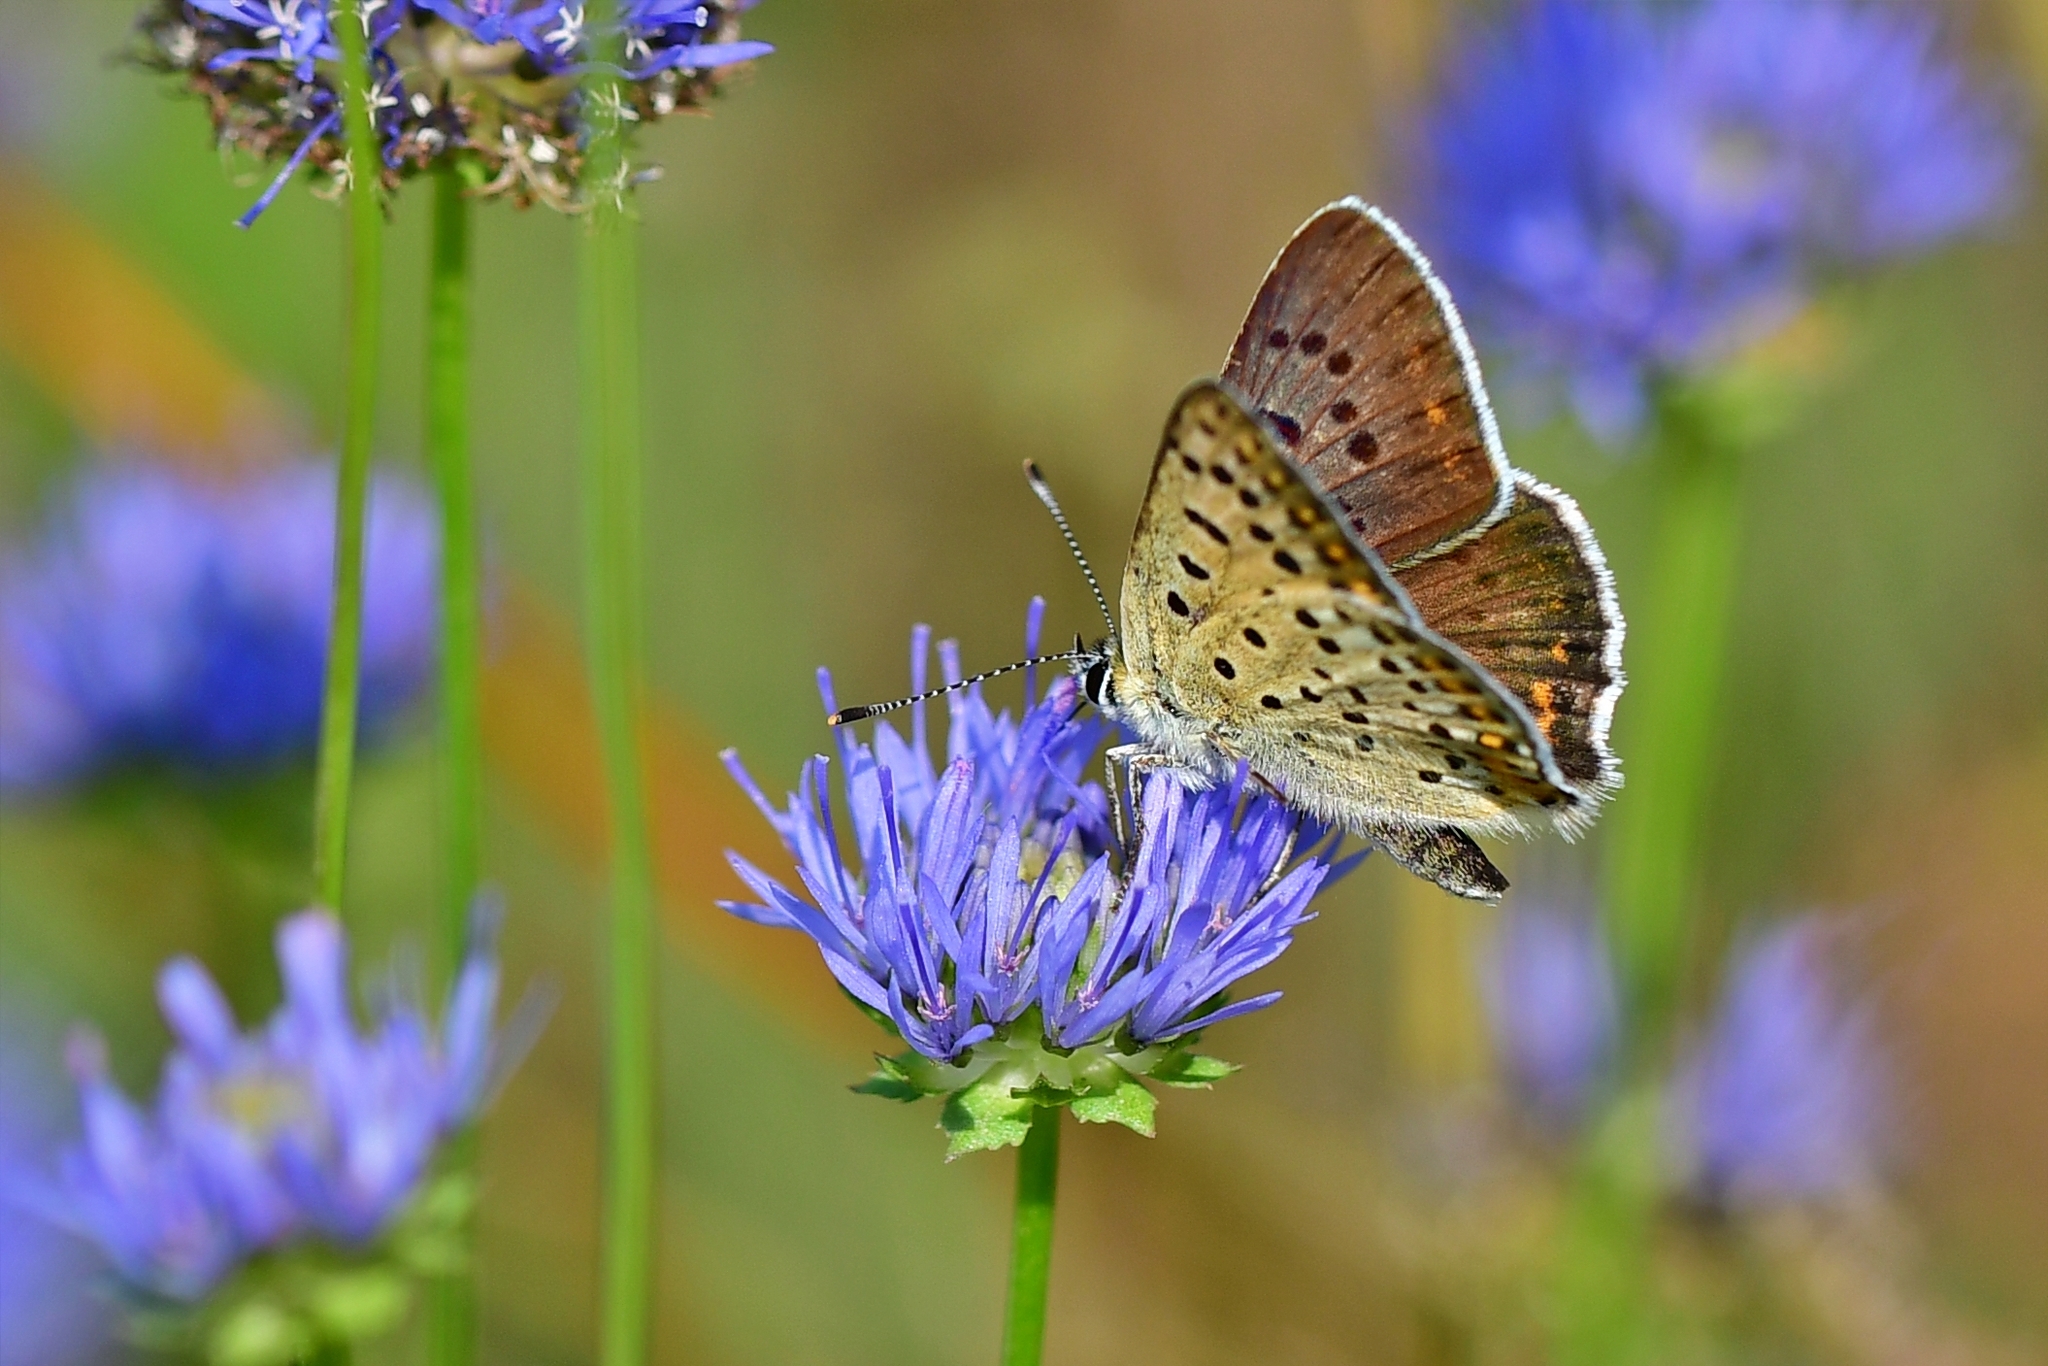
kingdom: Animalia
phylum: Arthropoda
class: Insecta
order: Lepidoptera
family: Lycaenidae
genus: Loweia
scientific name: Loweia tityrus
